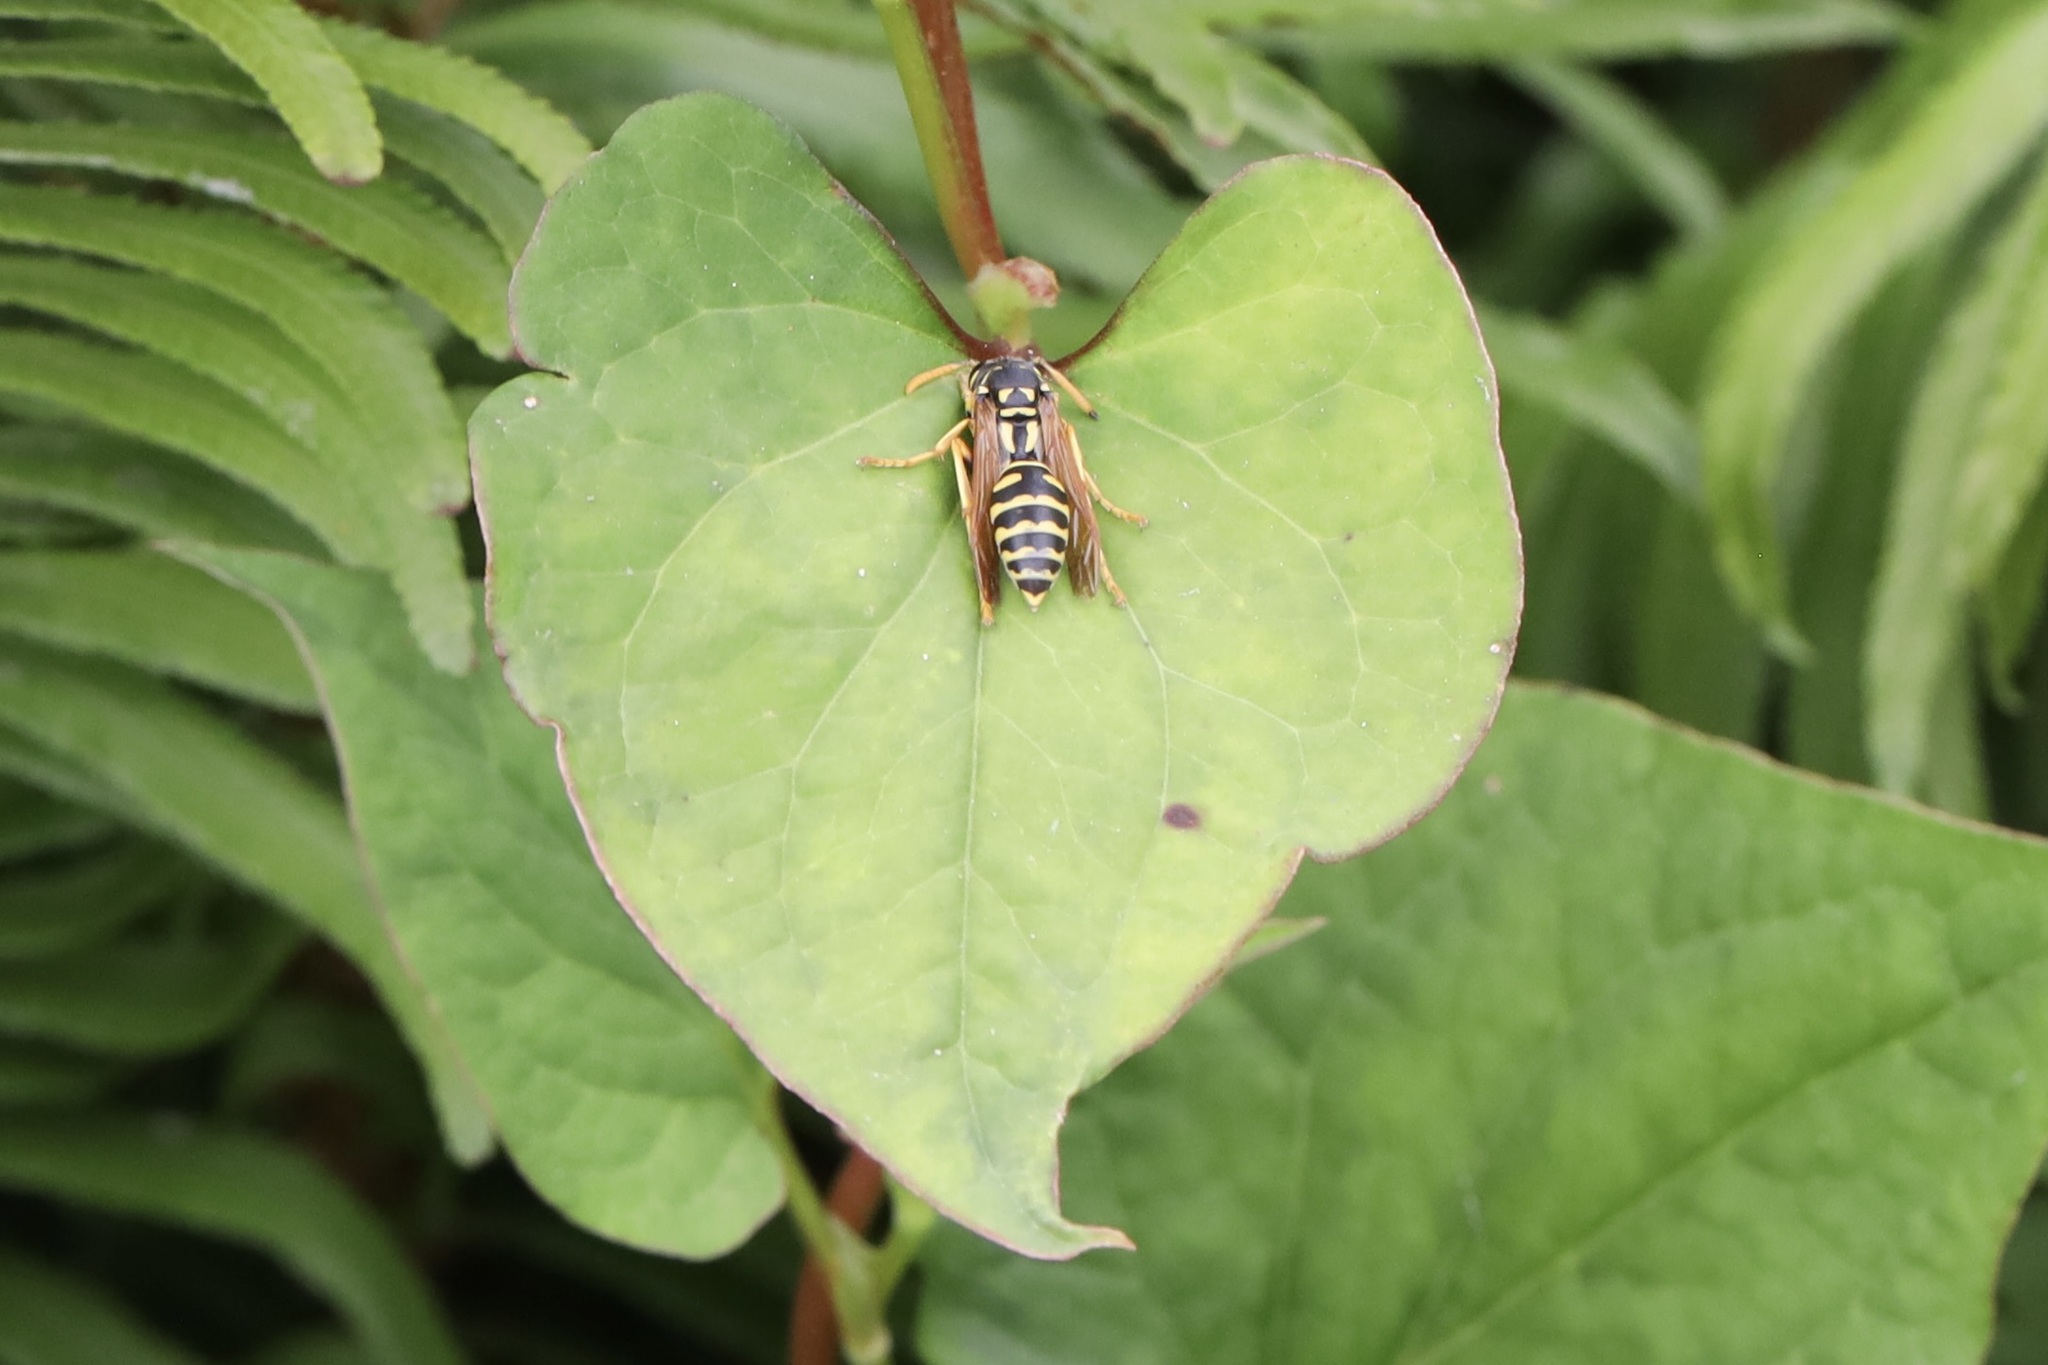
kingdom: Animalia
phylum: Arthropoda
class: Insecta
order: Hymenoptera
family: Eumenidae
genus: Polistes
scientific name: Polistes dominula
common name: Paper wasp
